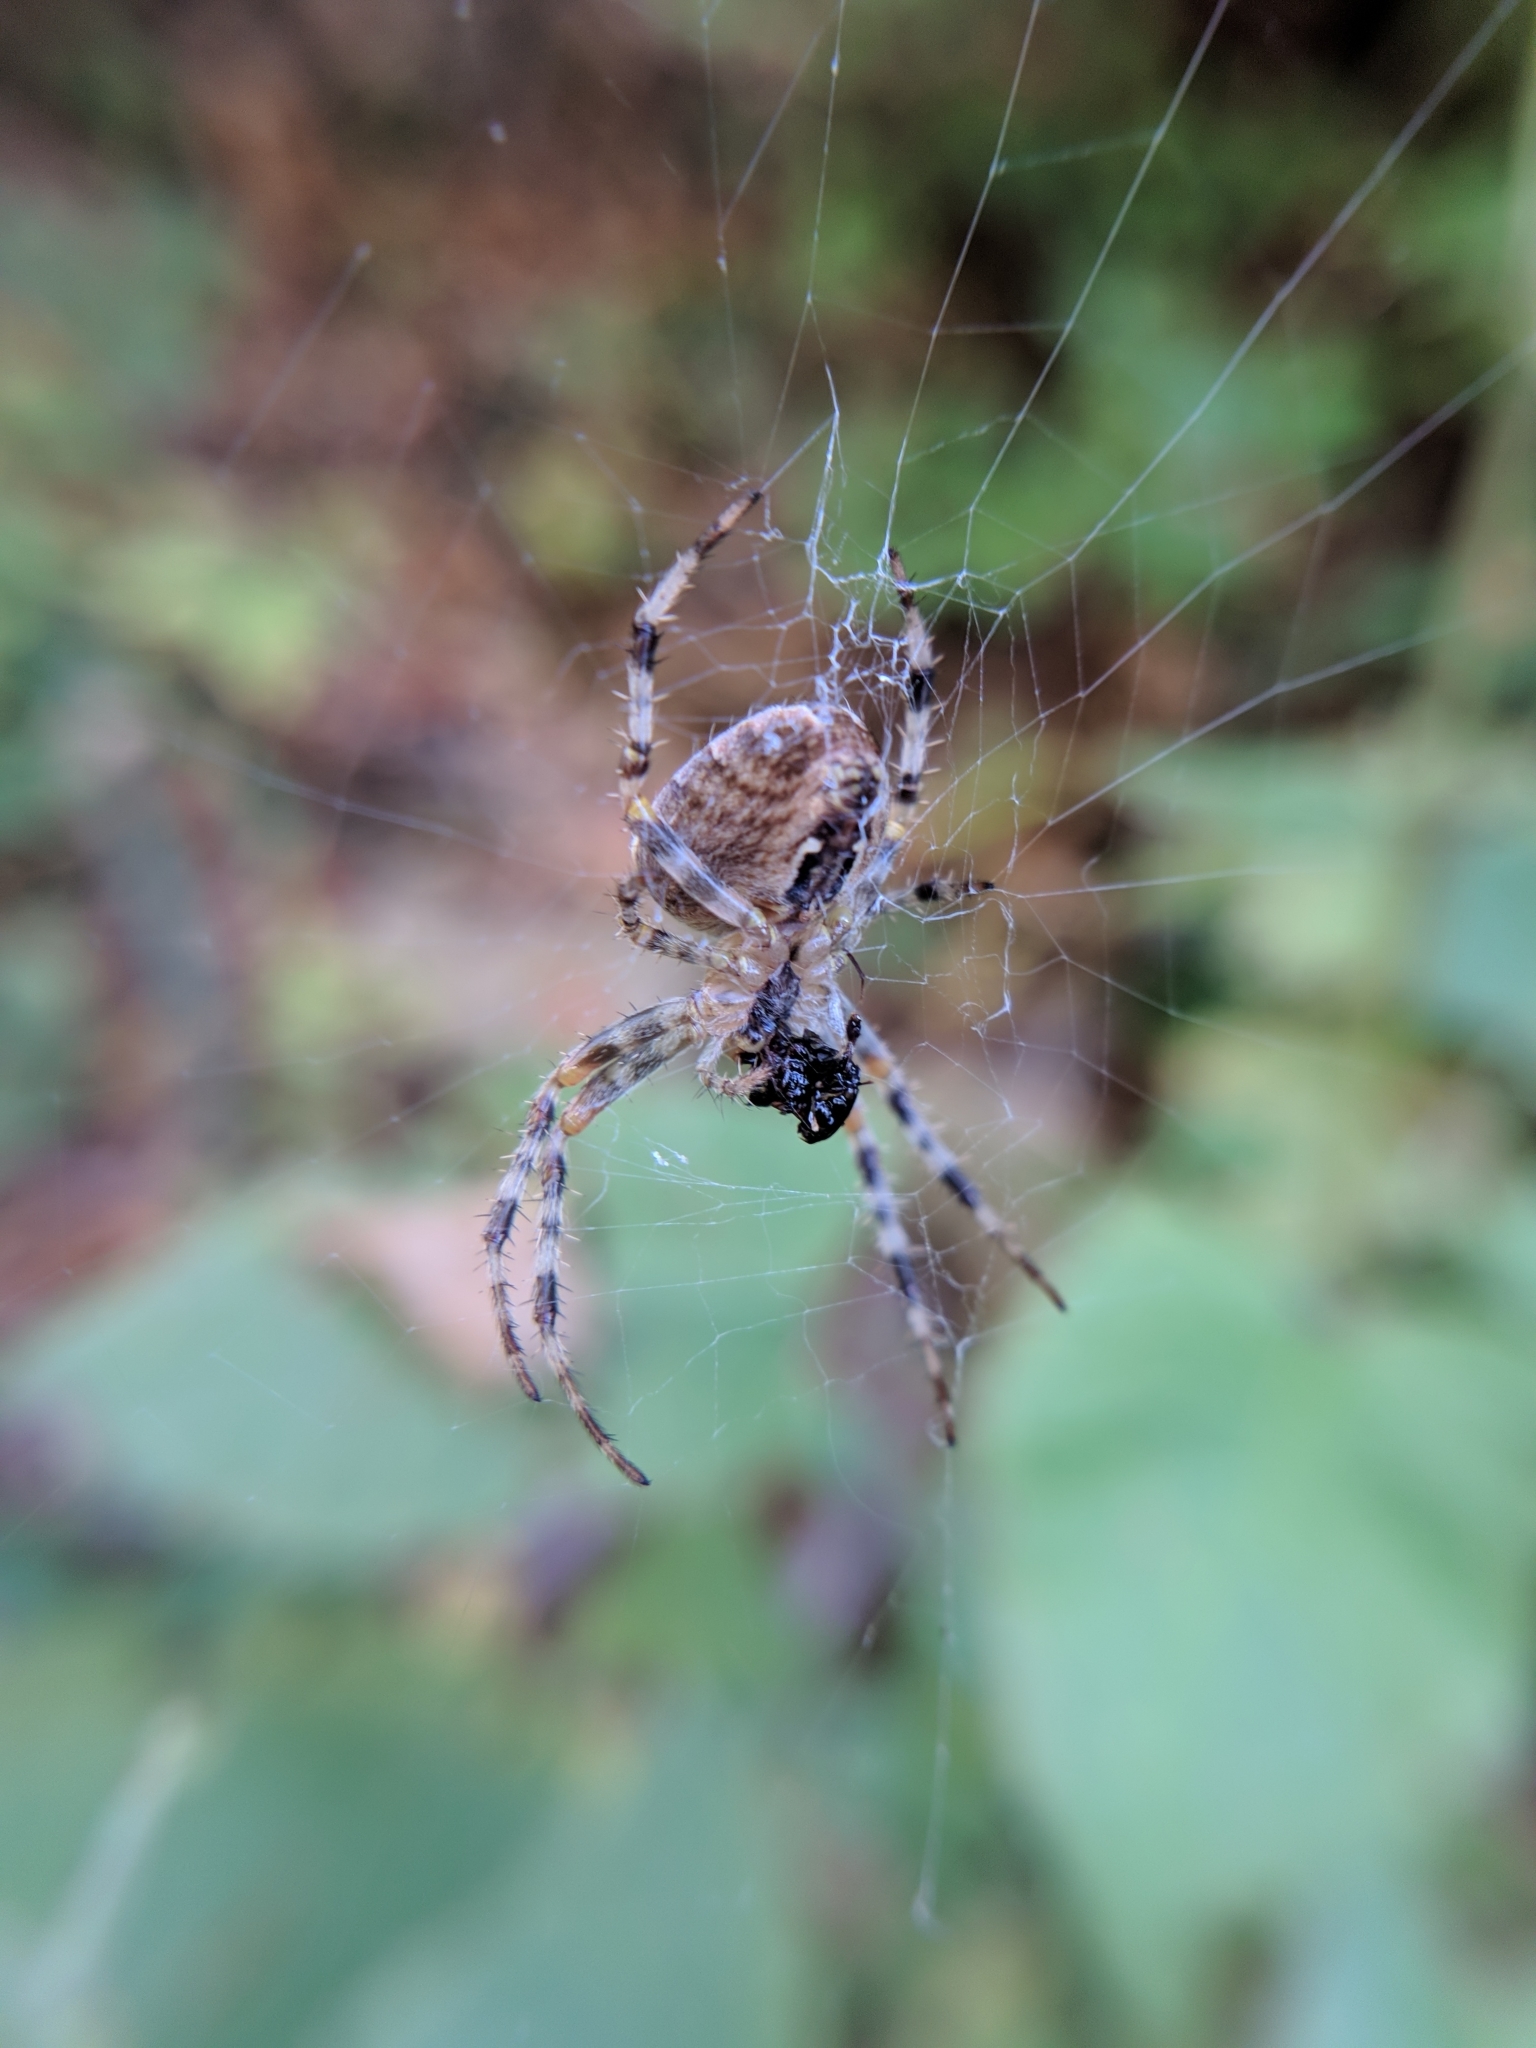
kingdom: Animalia
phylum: Arthropoda
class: Arachnida
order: Araneae
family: Araneidae
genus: Araneus
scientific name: Araneus diadematus
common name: Cross orbweaver
